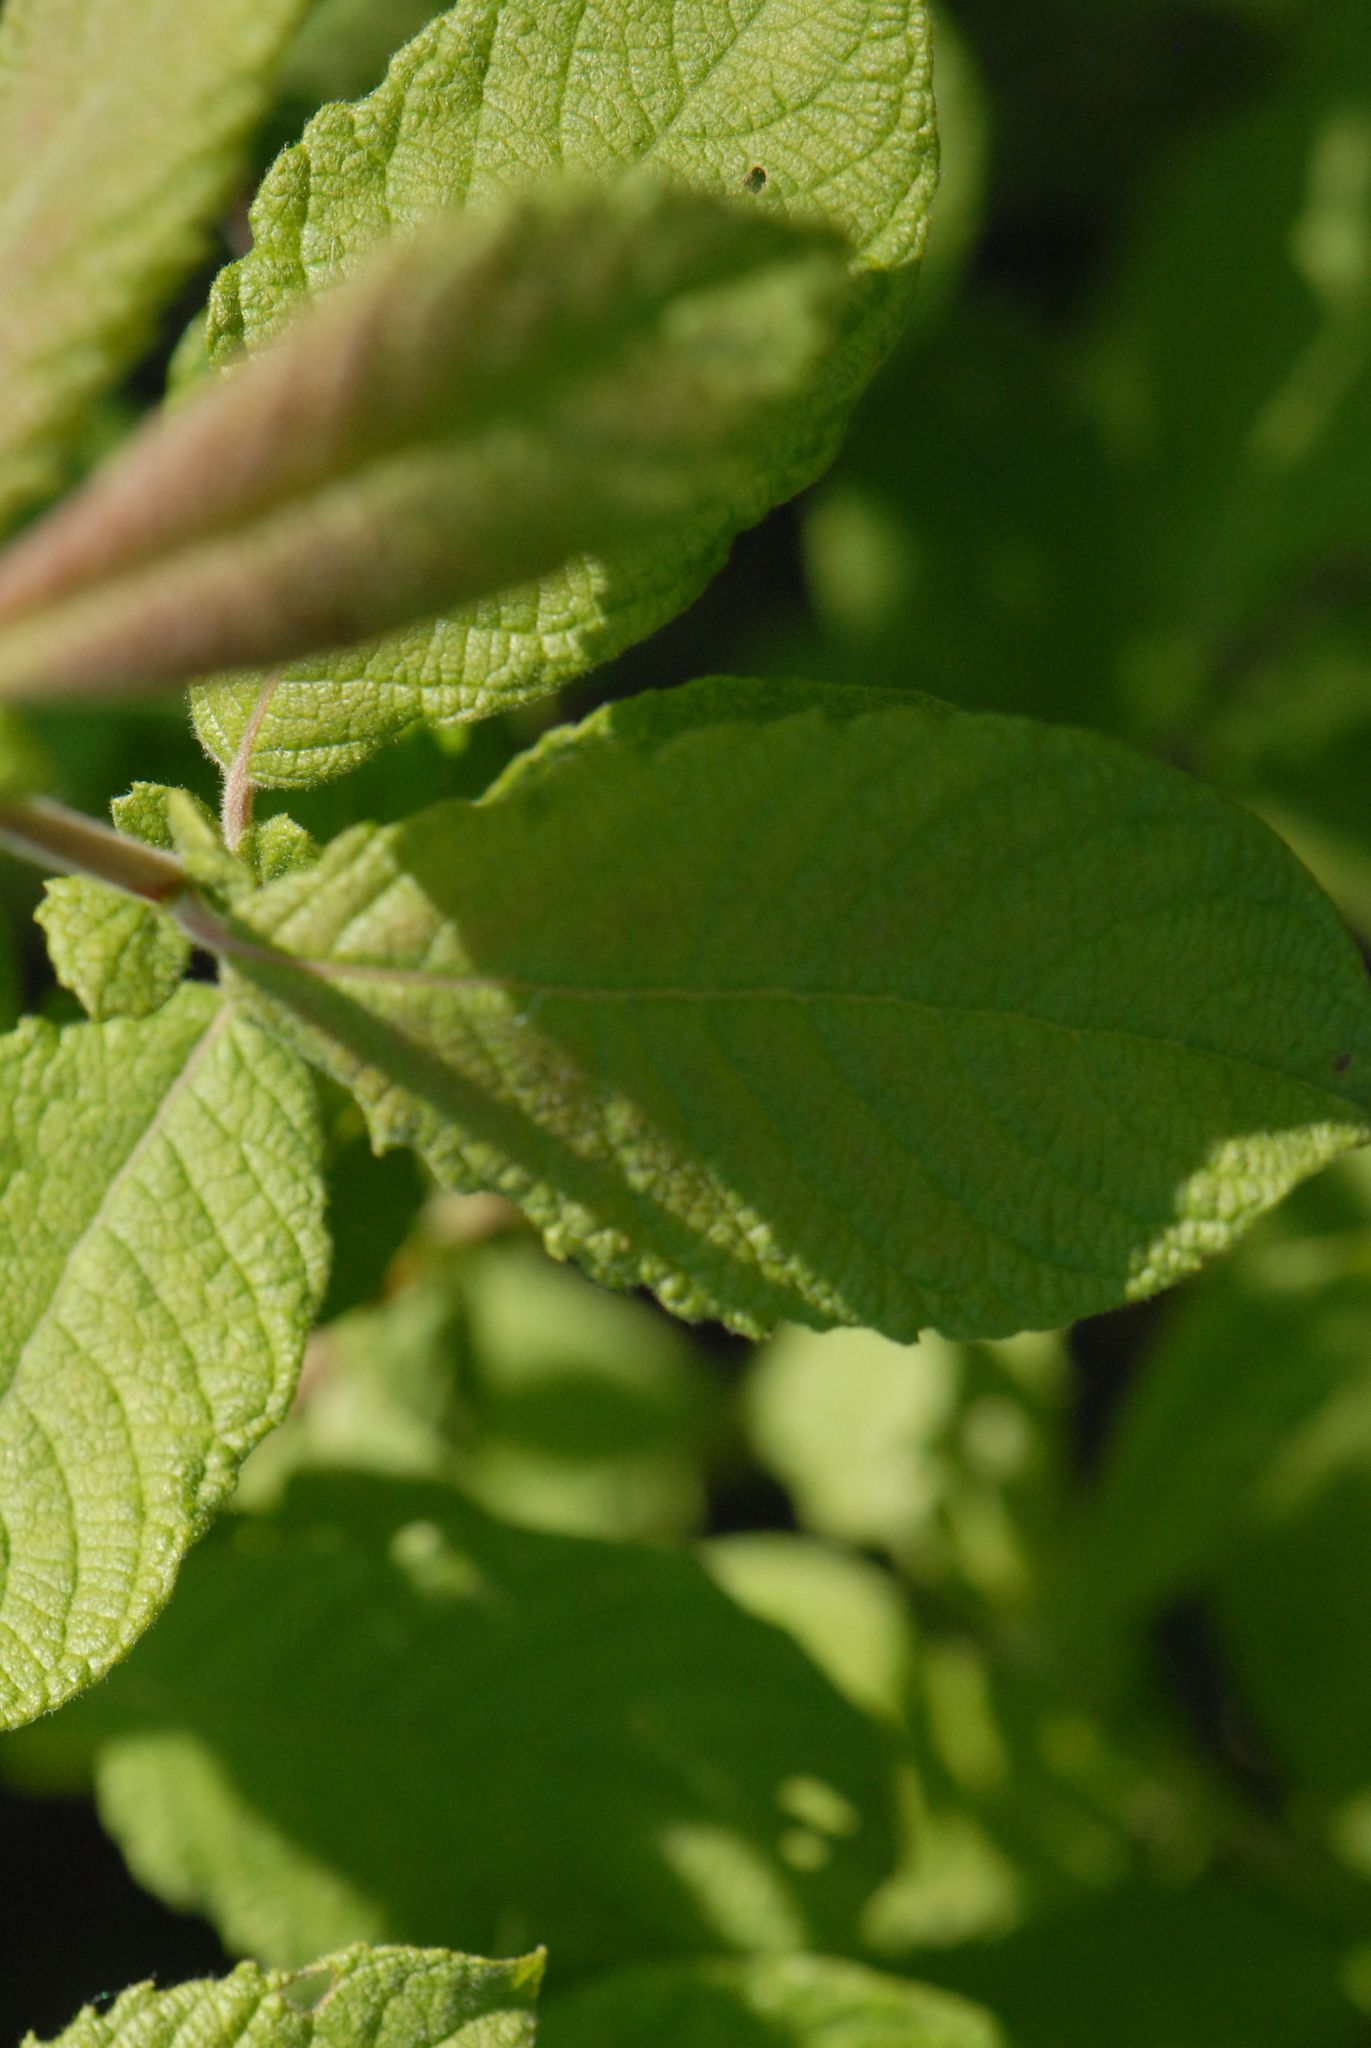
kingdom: Plantae
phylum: Tracheophyta
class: Magnoliopsida
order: Malpighiales
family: Salicaceae
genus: Salix
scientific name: Salix aurita
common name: Eared willow
